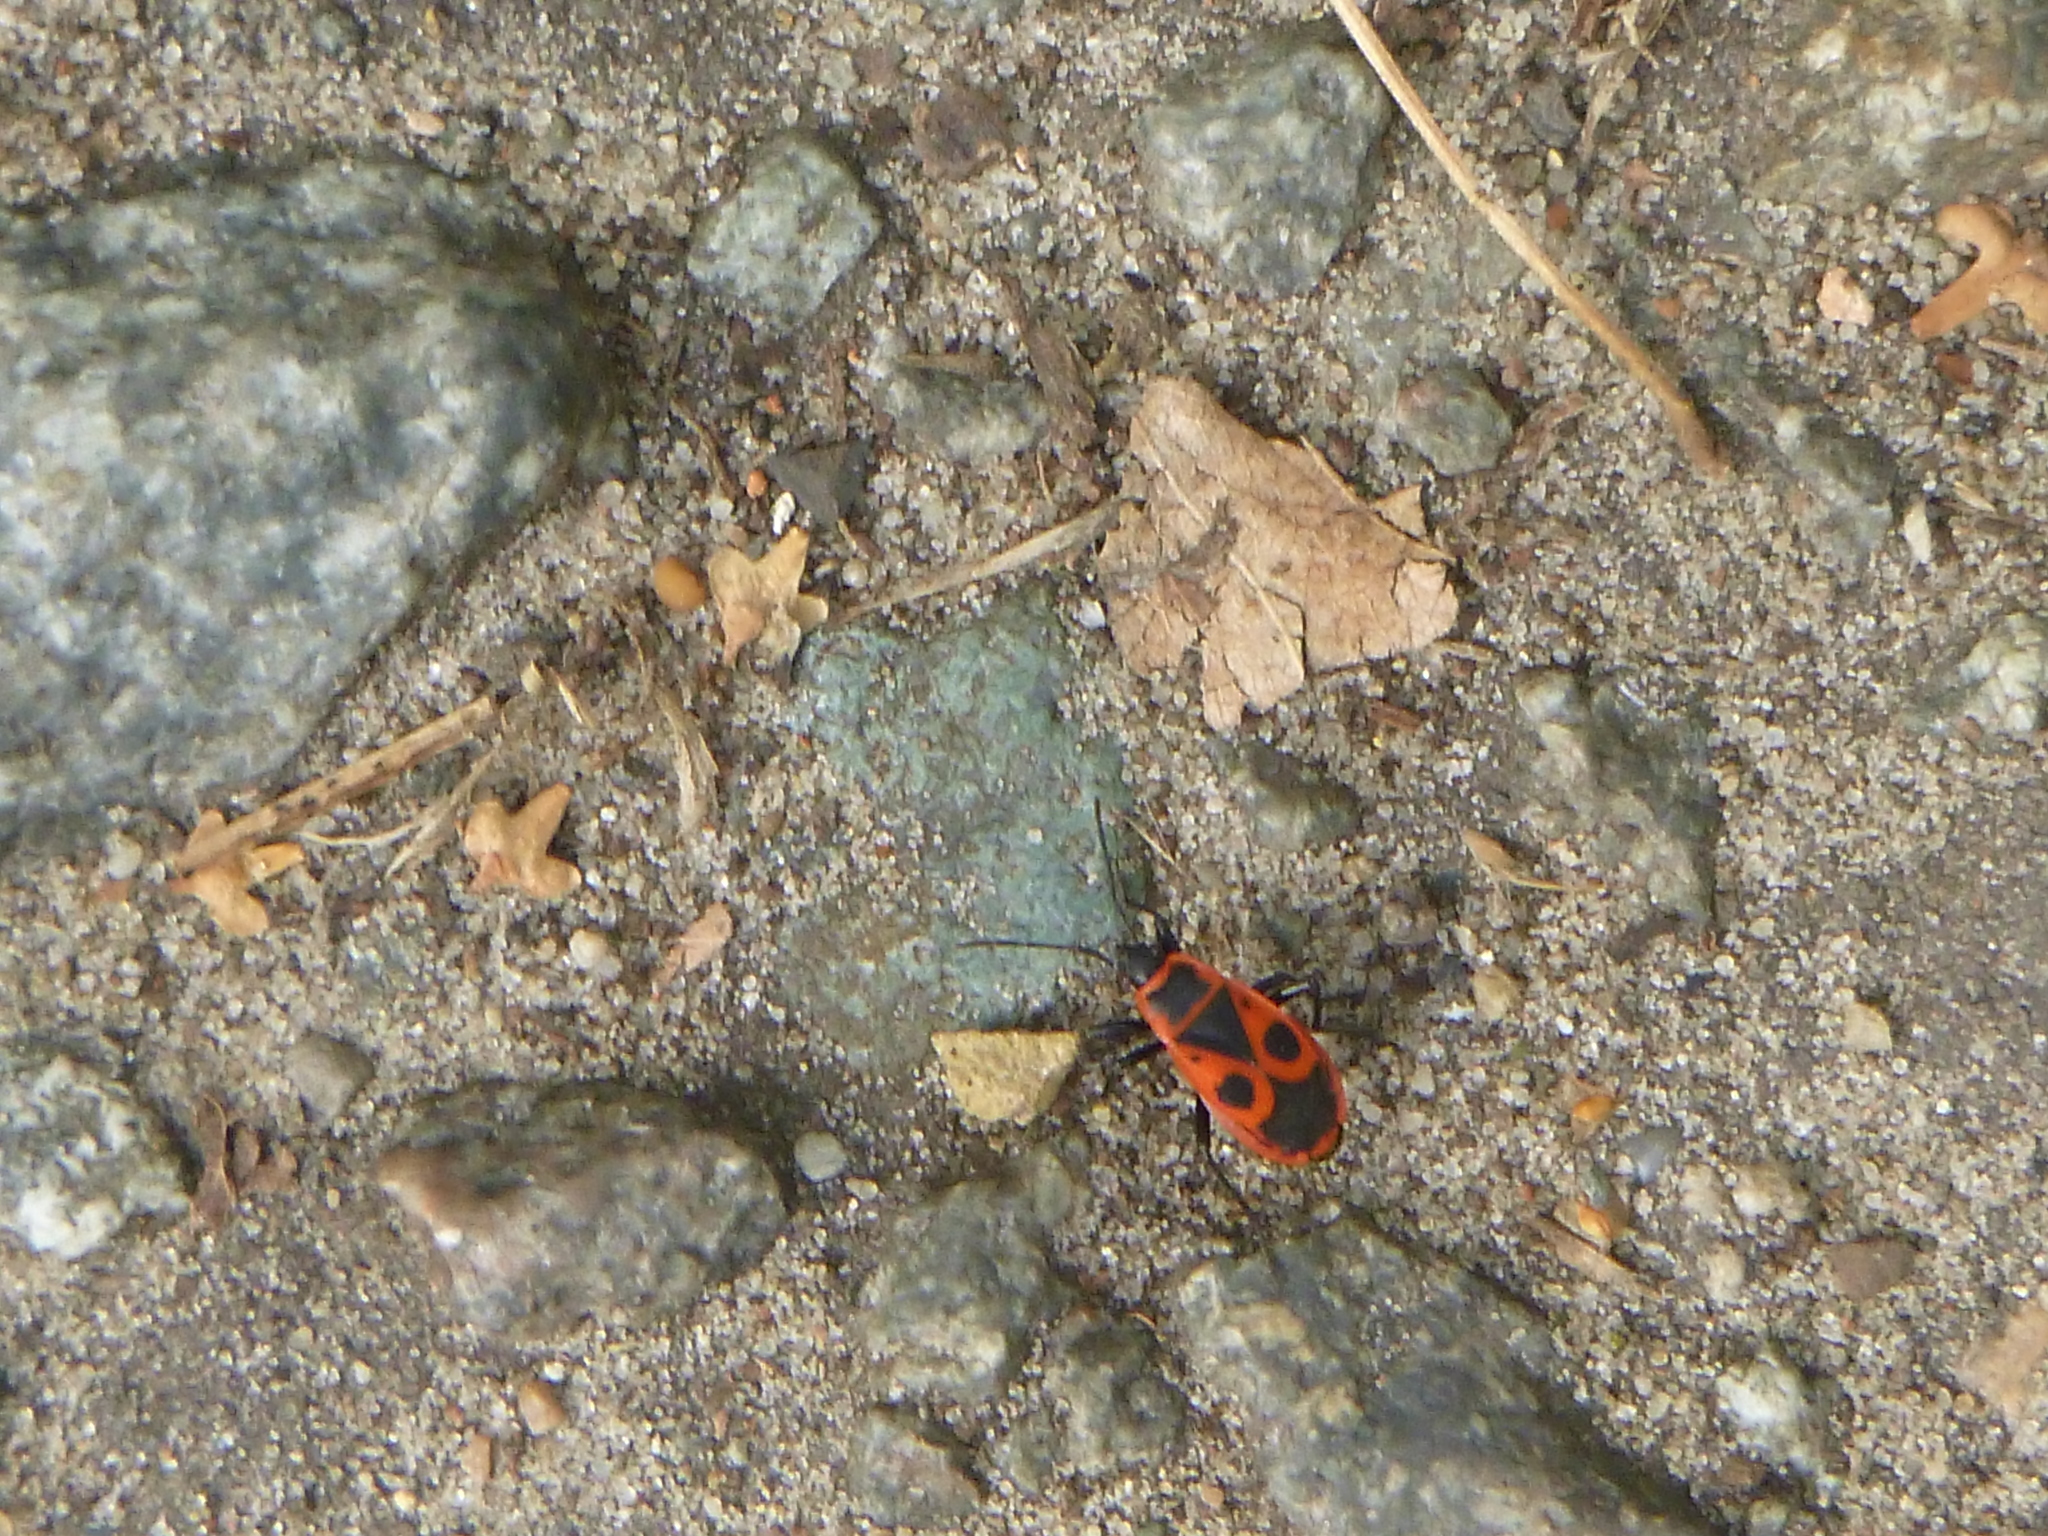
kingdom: Animalia
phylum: Arthropoda
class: Insecta
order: Hemiptera
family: Pyrrhocoridae
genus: Pyrrhocoris
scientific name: Pyrrhocoris apterus
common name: Firebug
